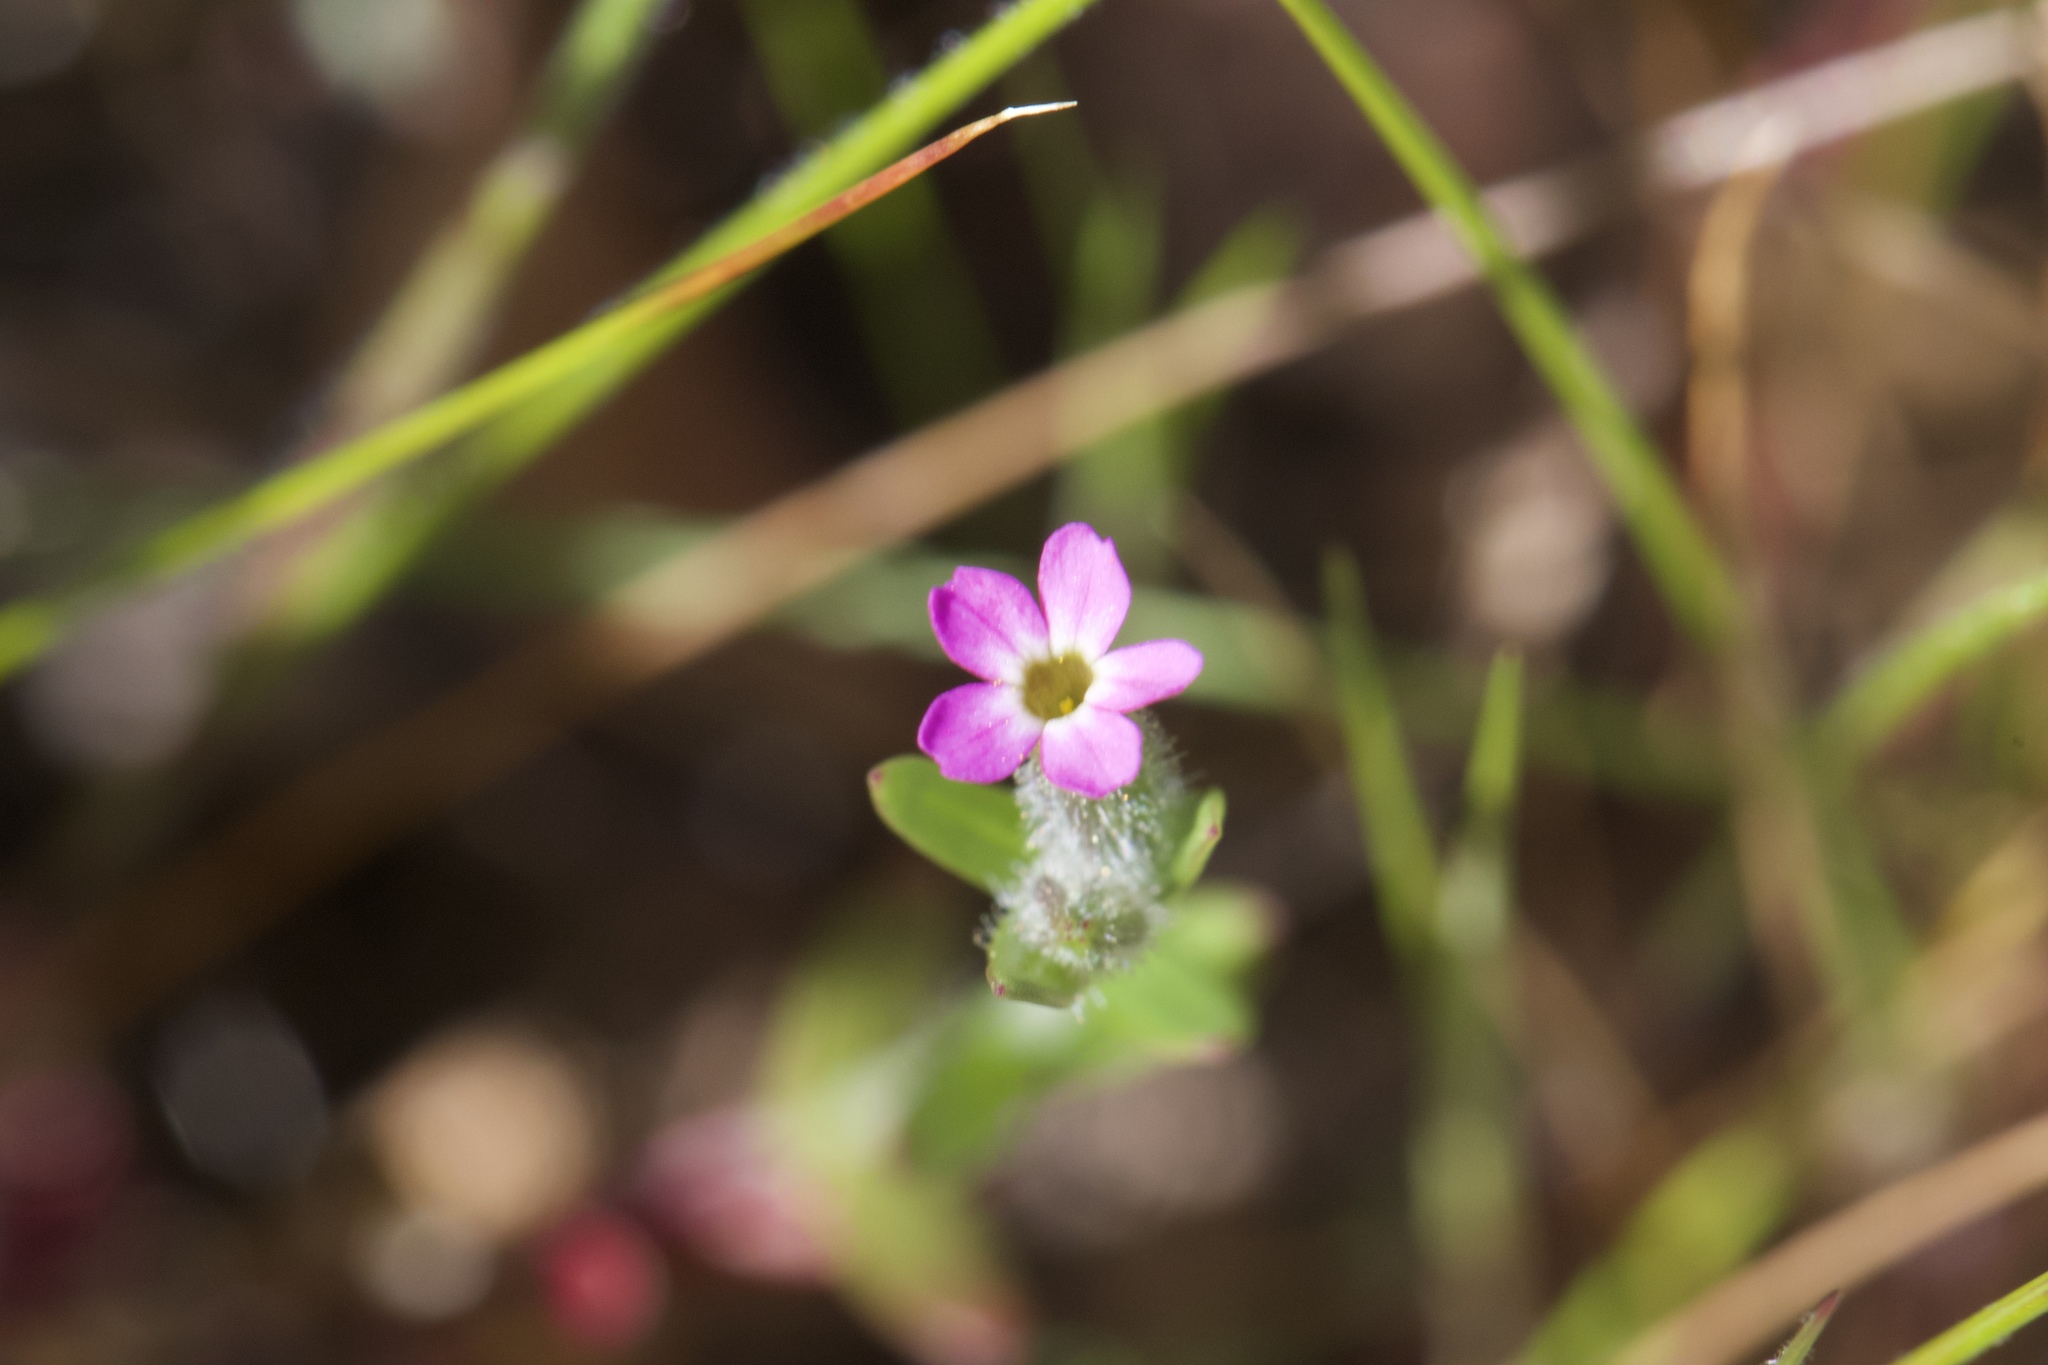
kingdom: Plantae
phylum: Tracheophyta
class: Magnoliopsida
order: Ericales
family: Polemoniaceae
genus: Phlox
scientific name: Phlox gracilis
